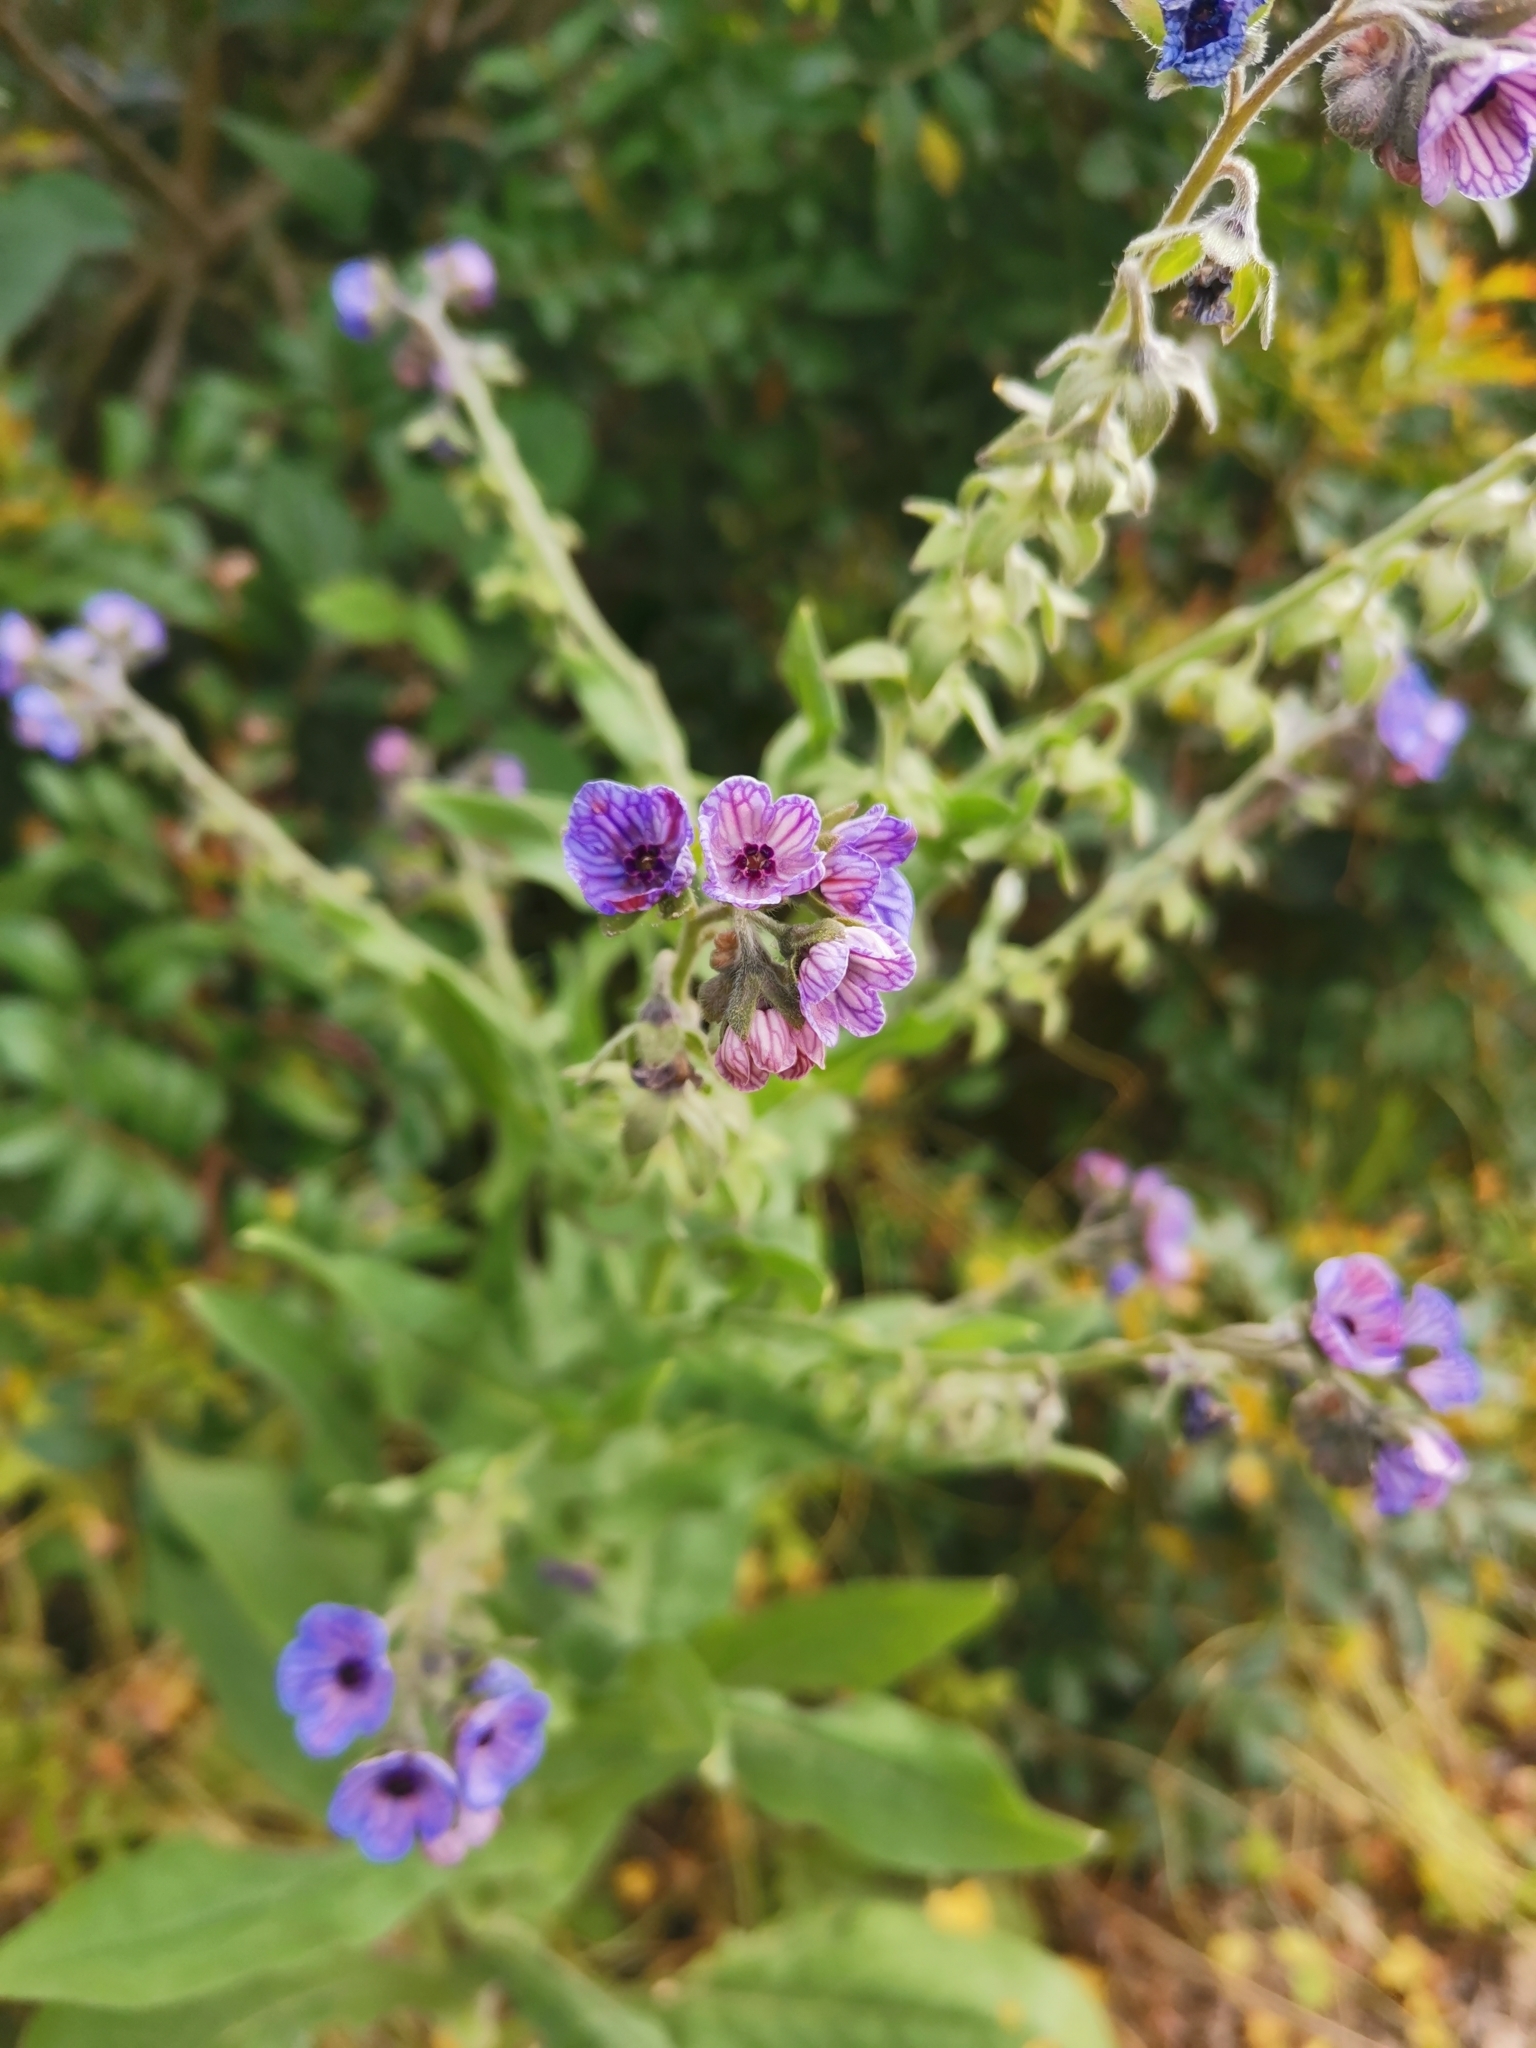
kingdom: Plantae
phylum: Tracheophyta
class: Magnoliopsida
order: Boraginales
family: Boraginaceae
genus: Cynoglossum
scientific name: Cynoglossum creticum
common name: Blue hound's tongue
